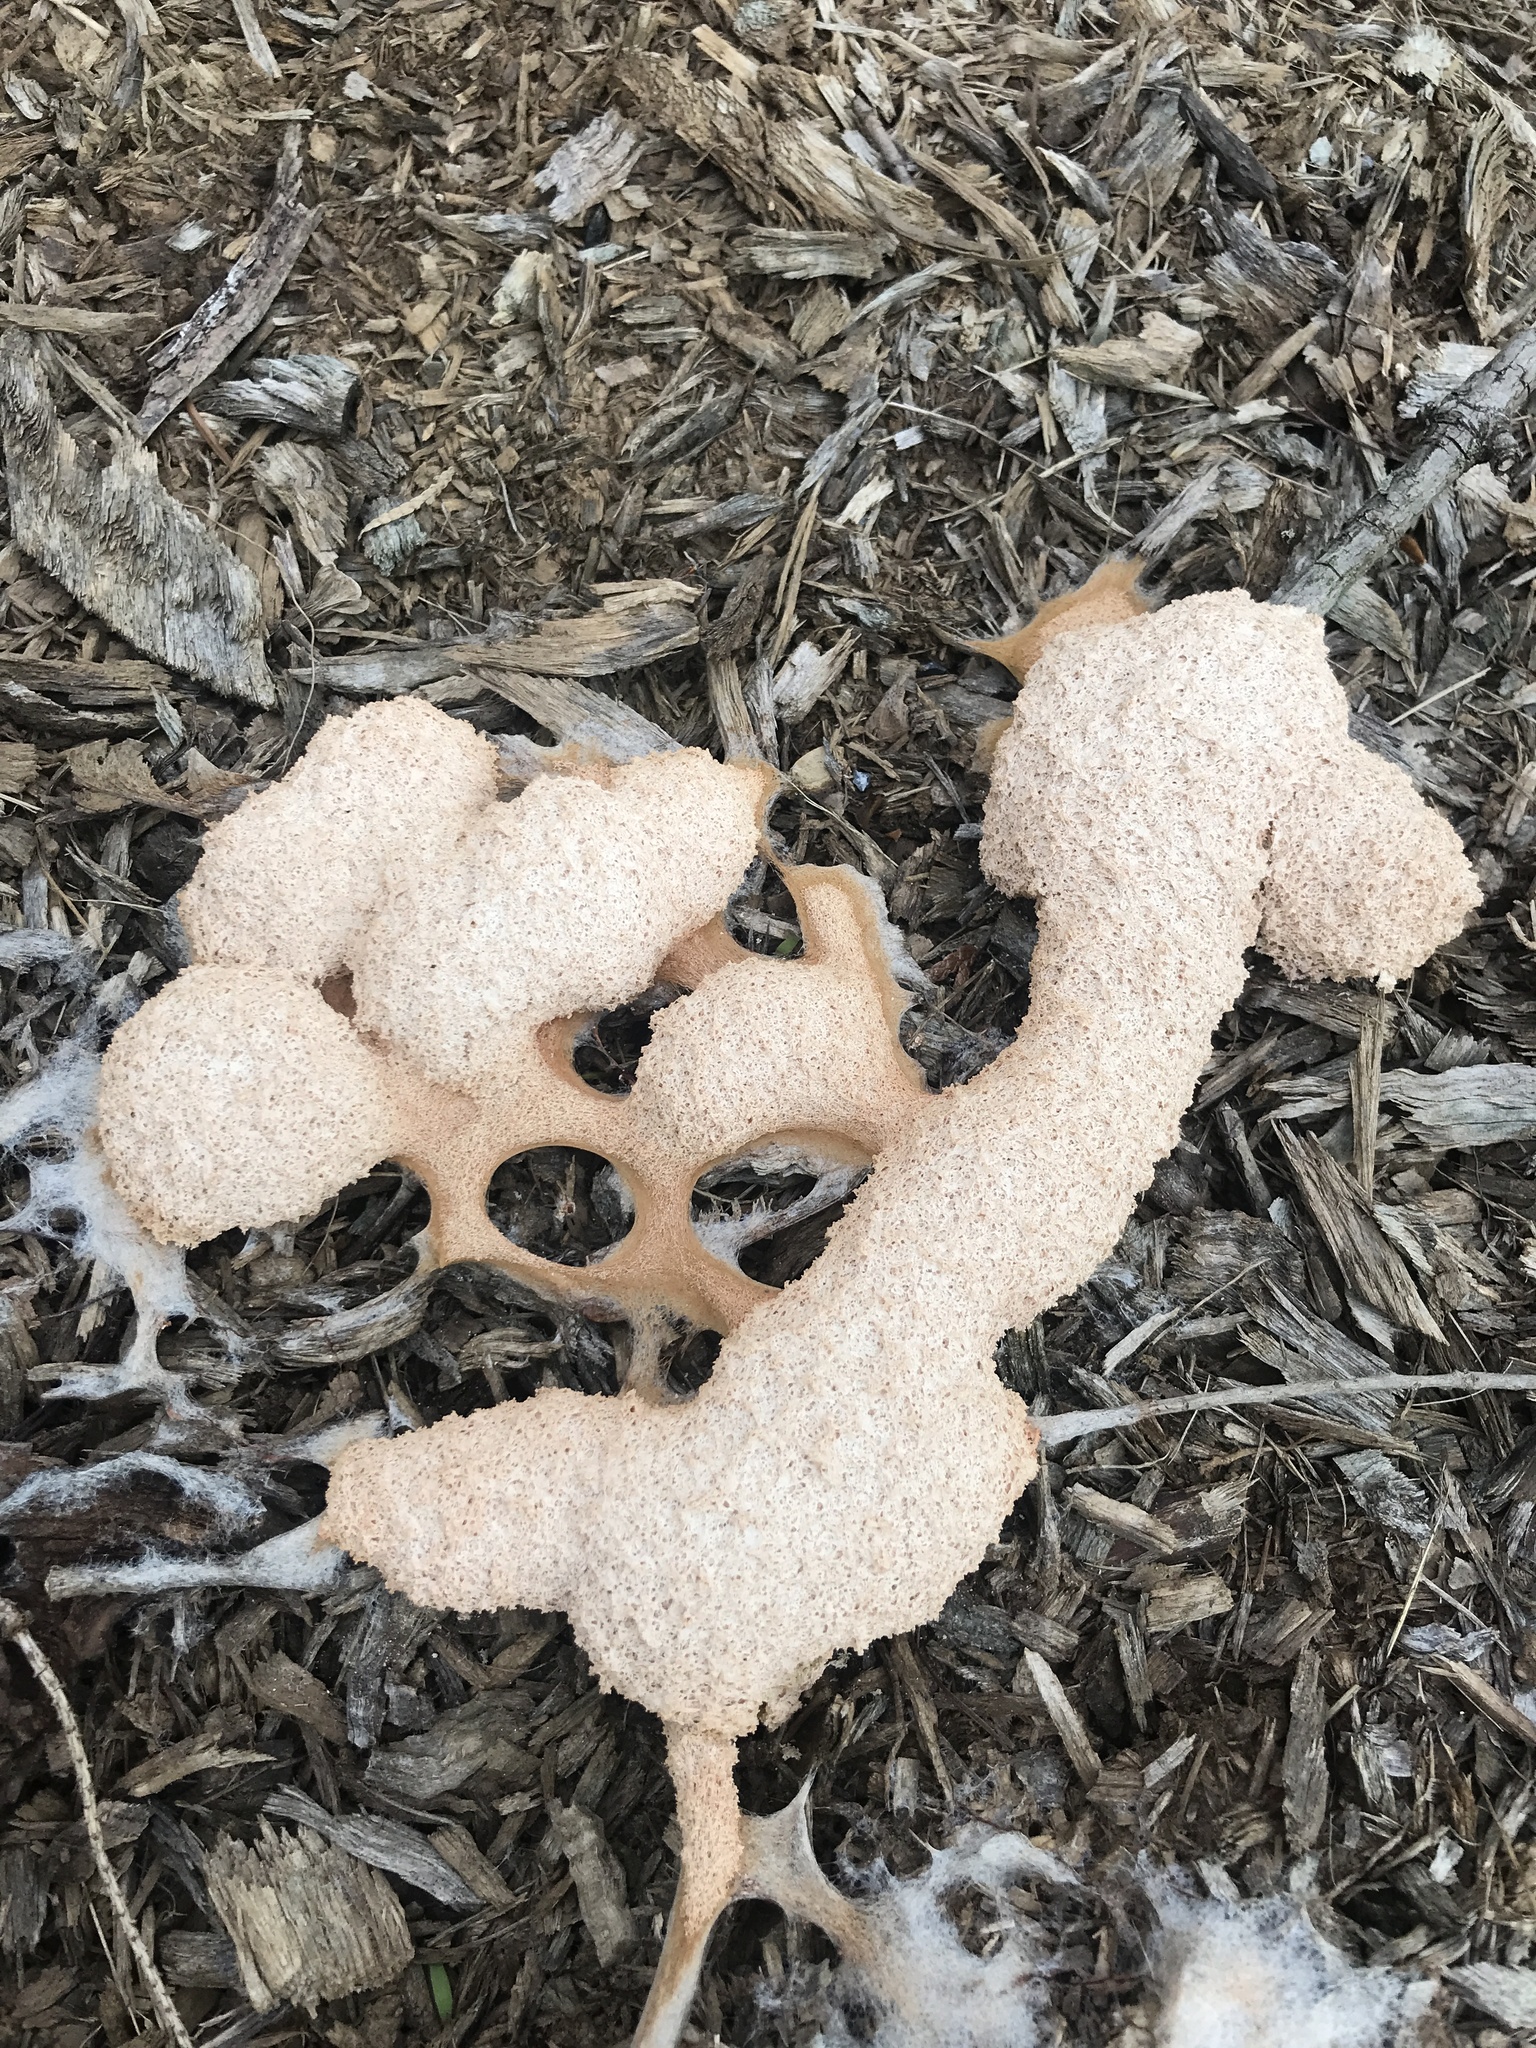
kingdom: Protozoa
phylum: Mycetozoa
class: Myxomycetes
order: Physarales
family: Physaraceae
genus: Fuligo
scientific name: Fuligo septica
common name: Dog vomit slime mold
